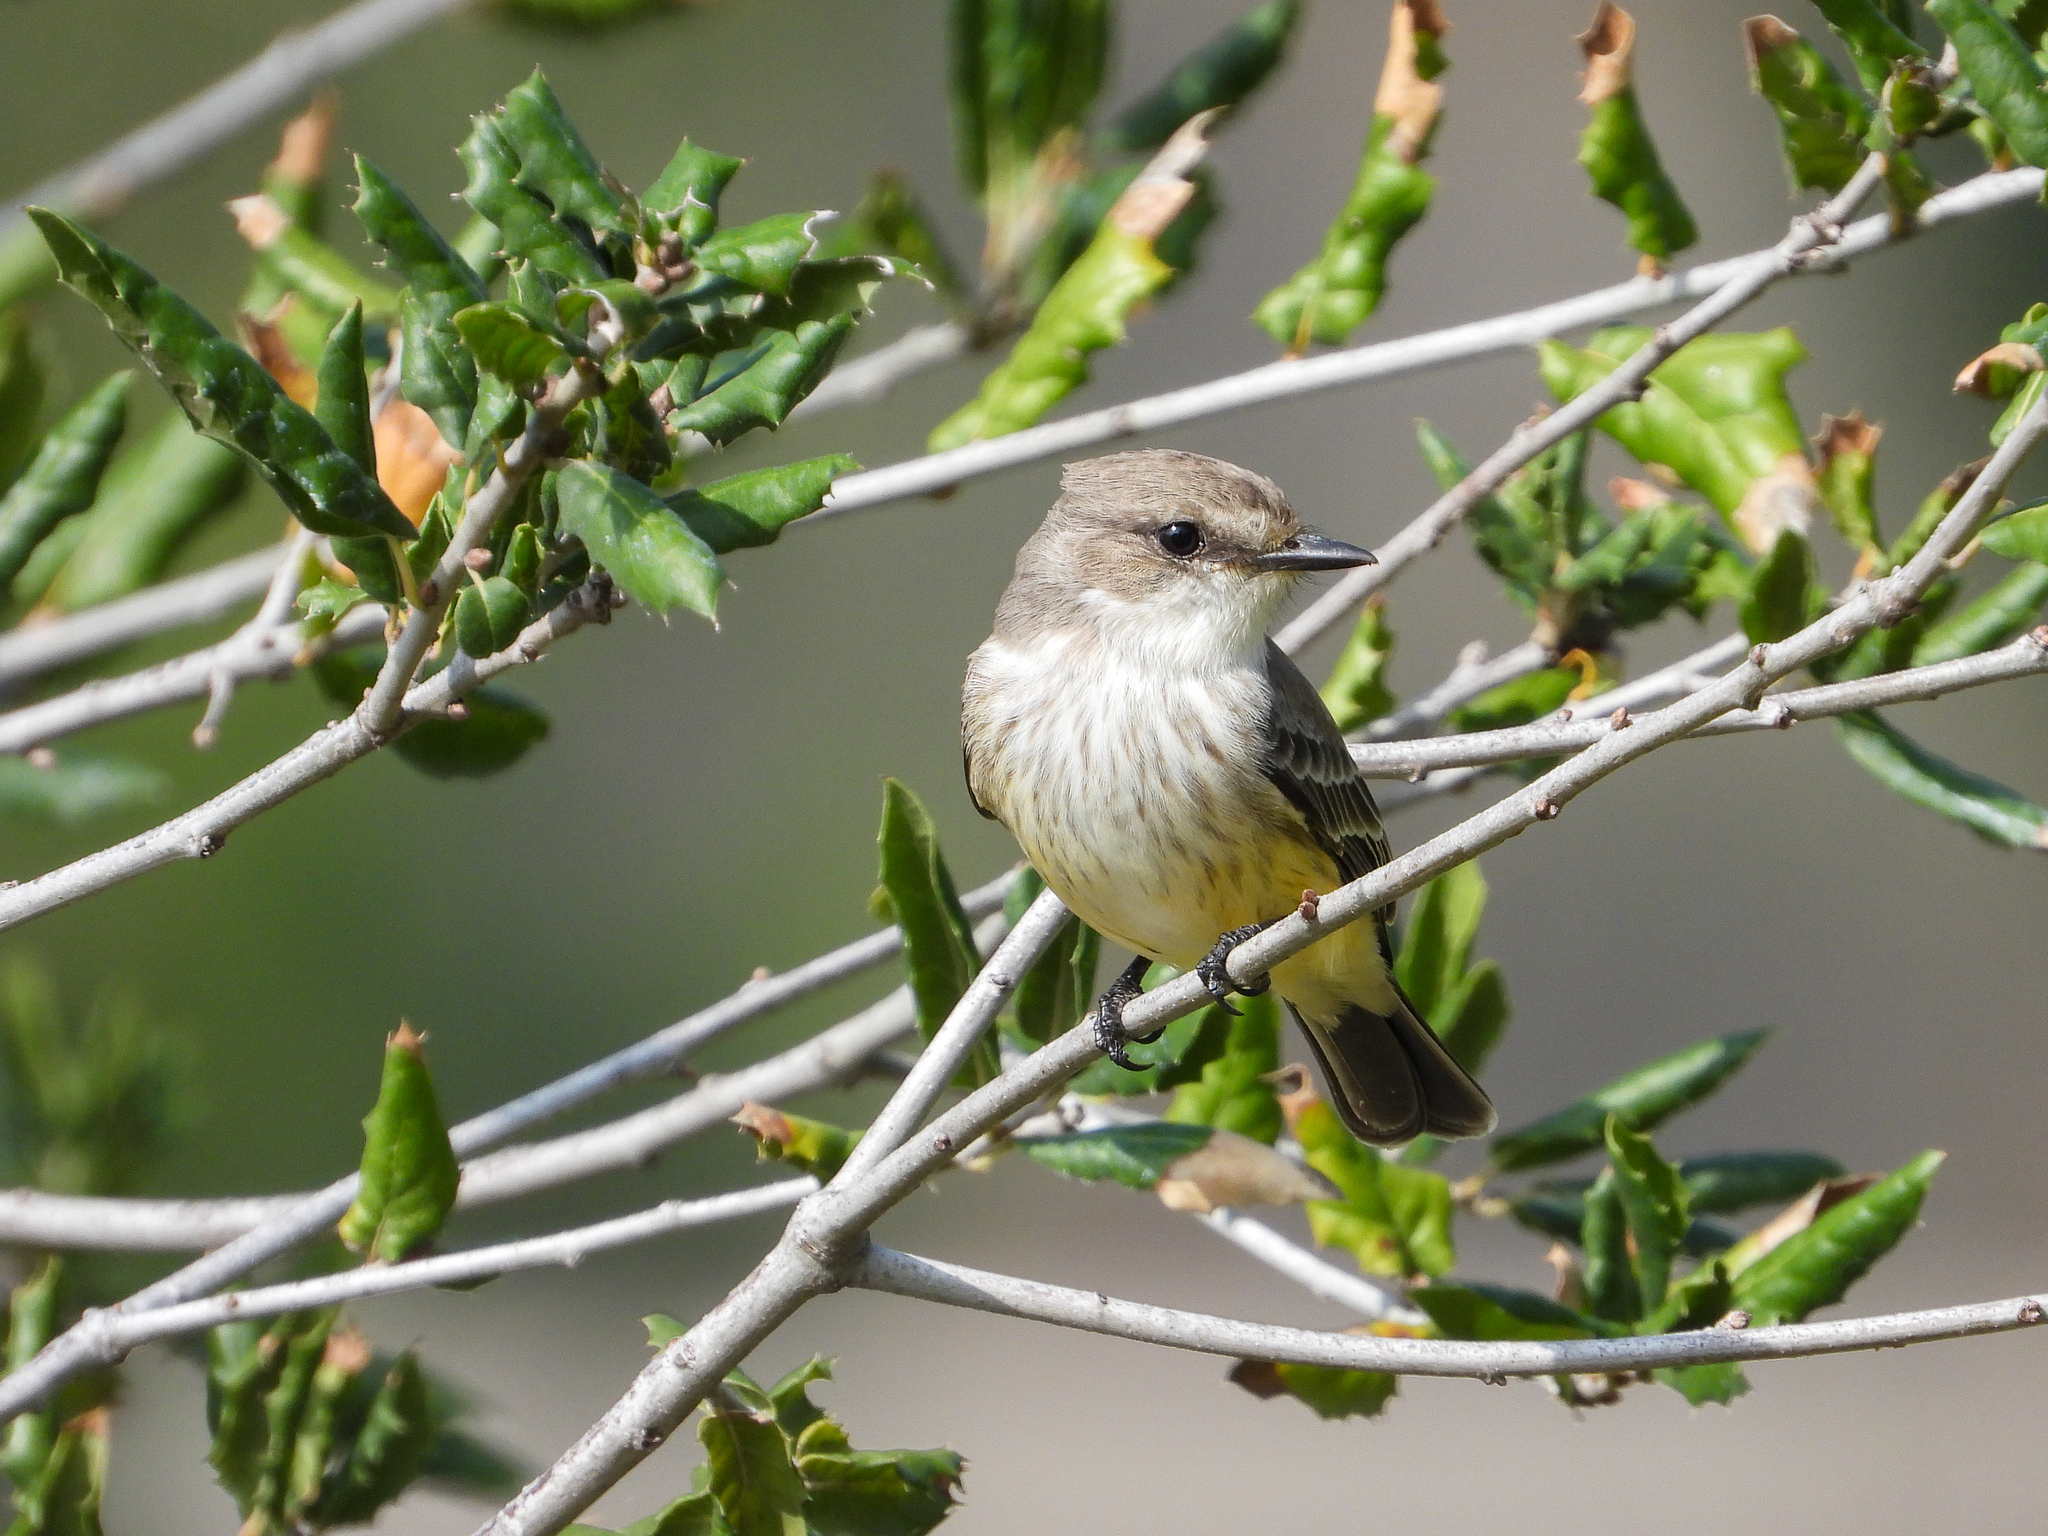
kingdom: Animalia
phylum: Chordata
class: Aves
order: Passeriformes
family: Tyrannidae
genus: Pyrocephalus
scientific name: Pyrocephalus rubinus
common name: Vermilion flycatcher
